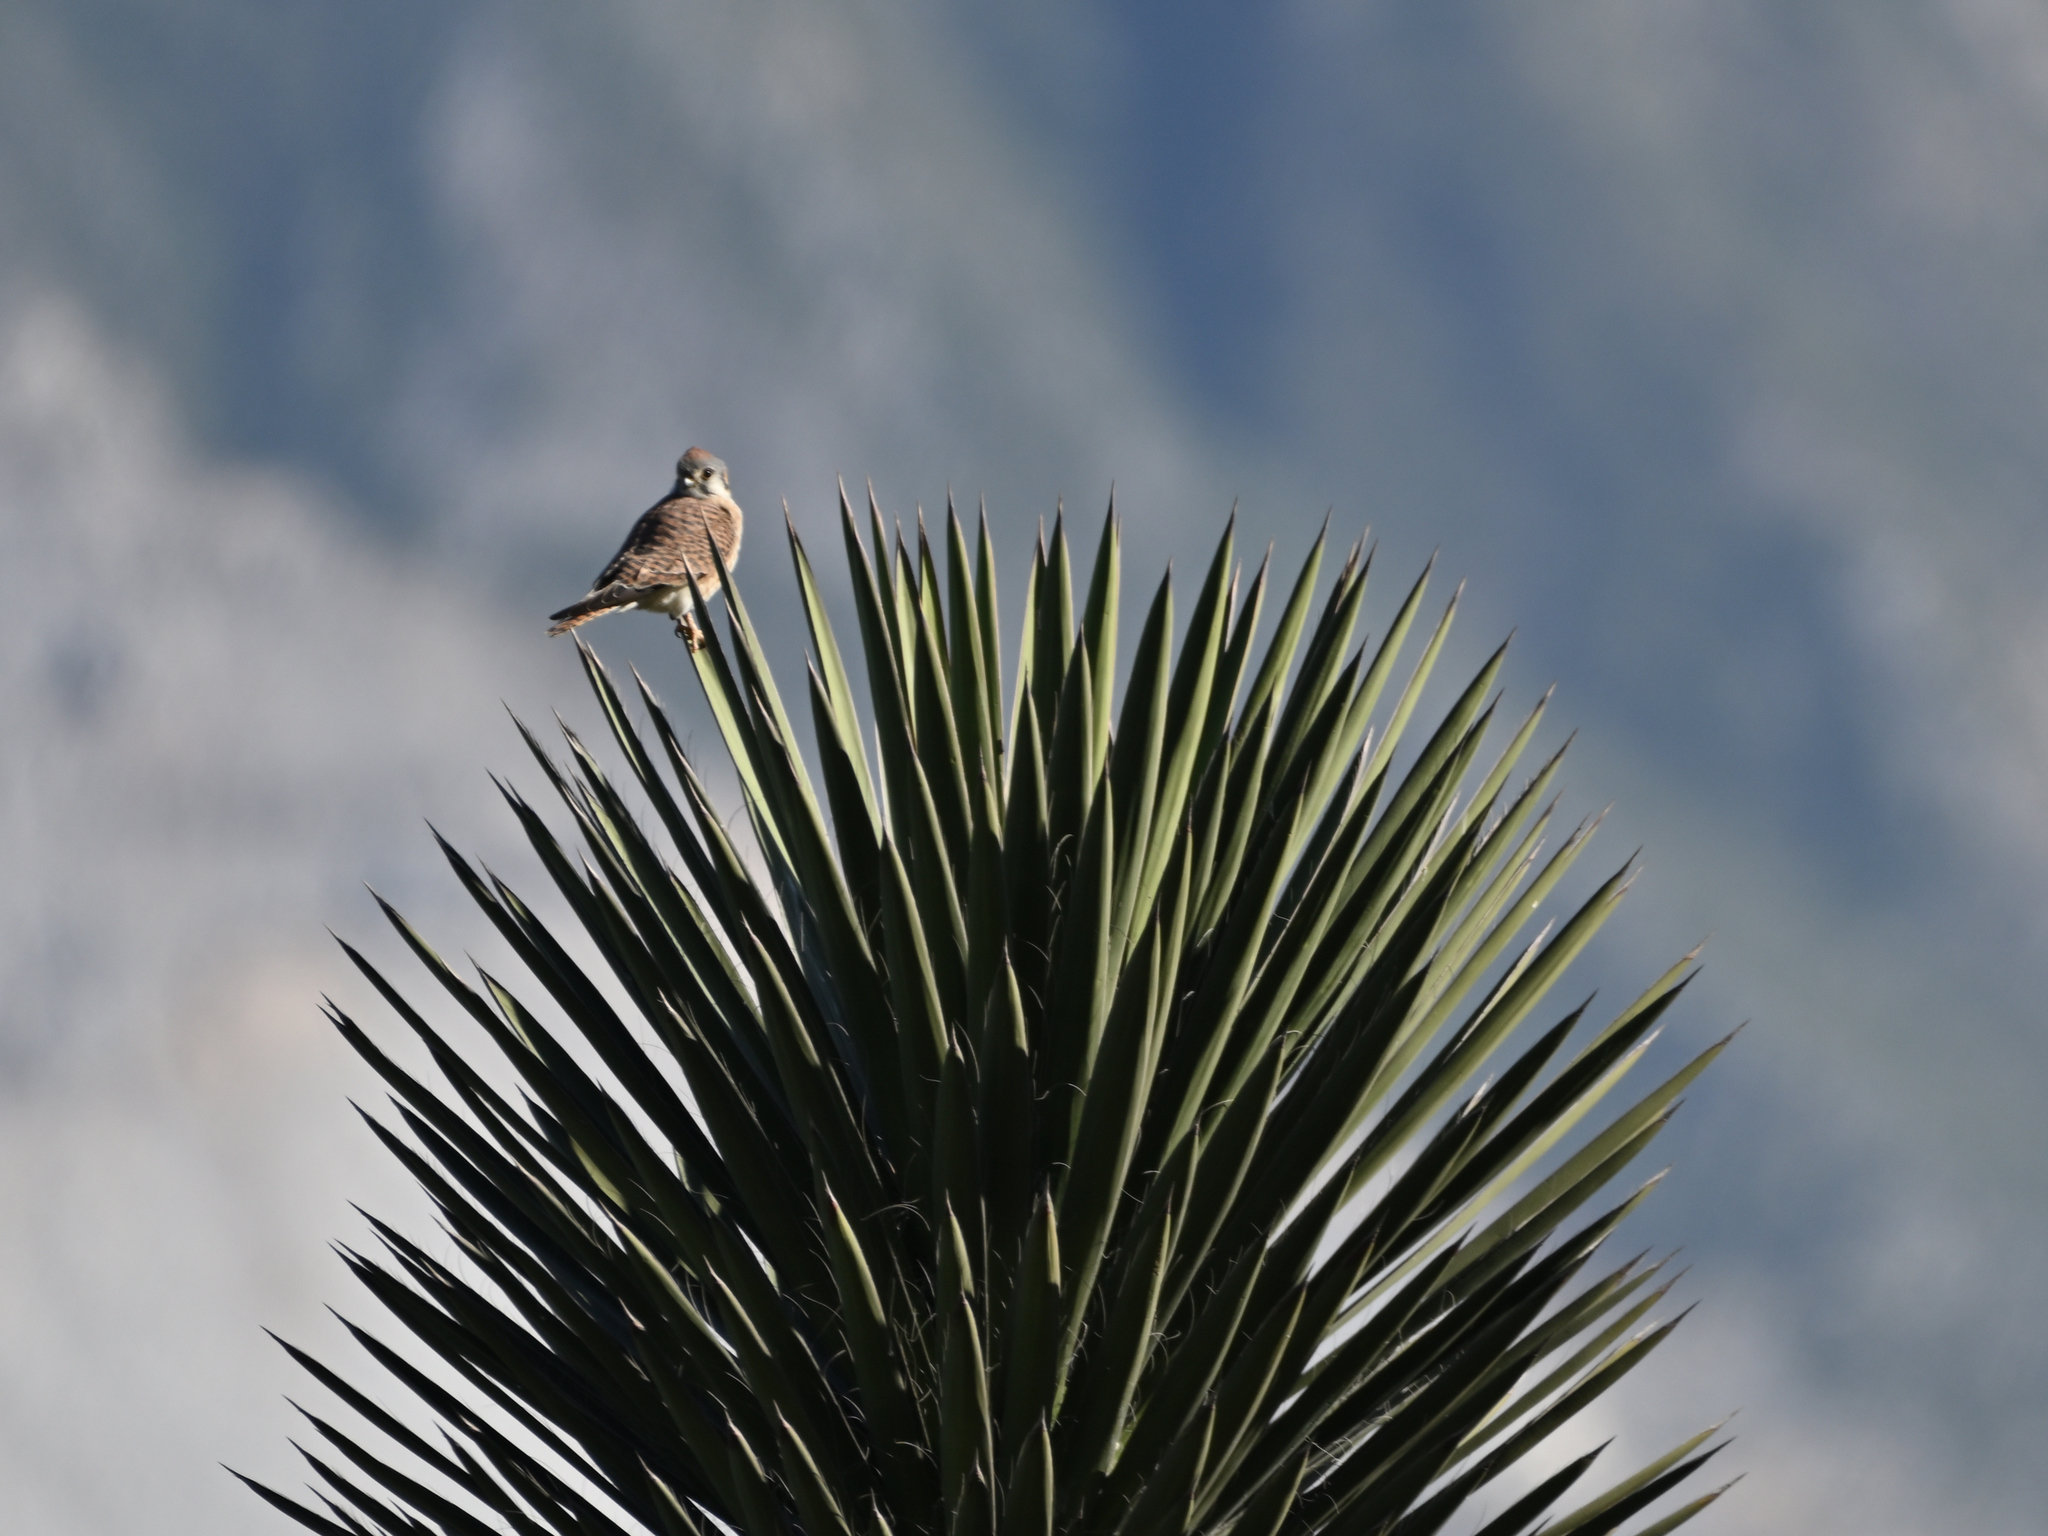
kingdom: Animalia
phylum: Chordata
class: Aves
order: Falconiformes
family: Falconidae
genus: Falco
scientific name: Falco sparverius
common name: American kestrel
